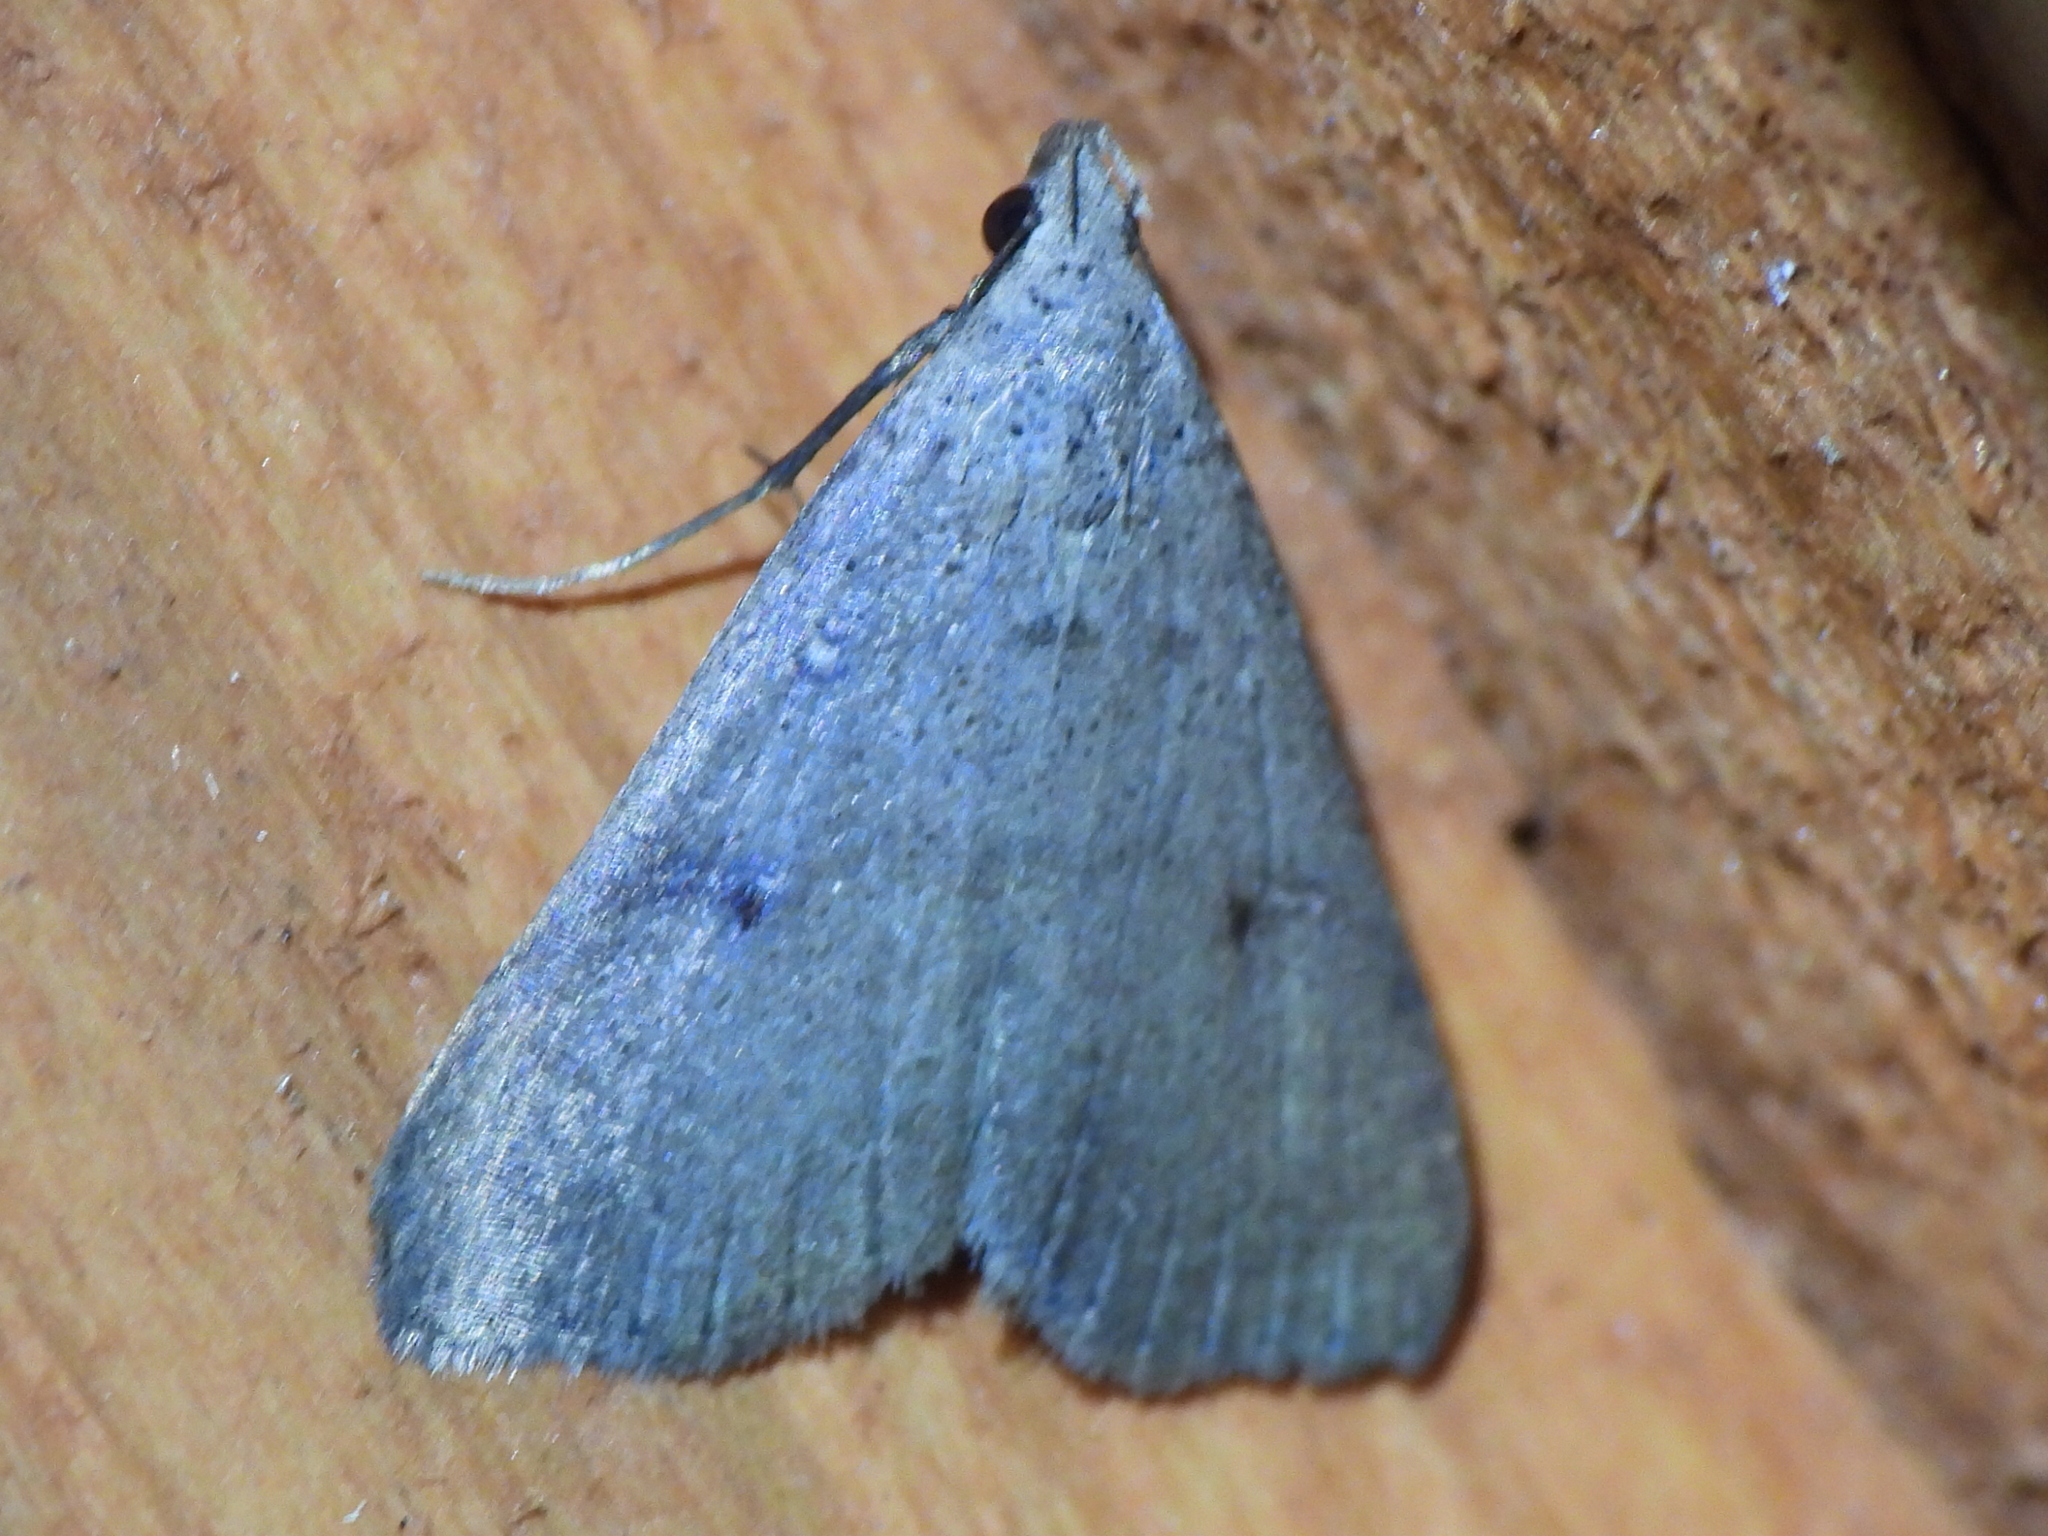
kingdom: Animalia
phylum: Arthropoda
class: Insecta
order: Lepidoptera
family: Erebidae
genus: Bleptina
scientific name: Bleptina caradrinalis
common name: Bent-winged owlet
